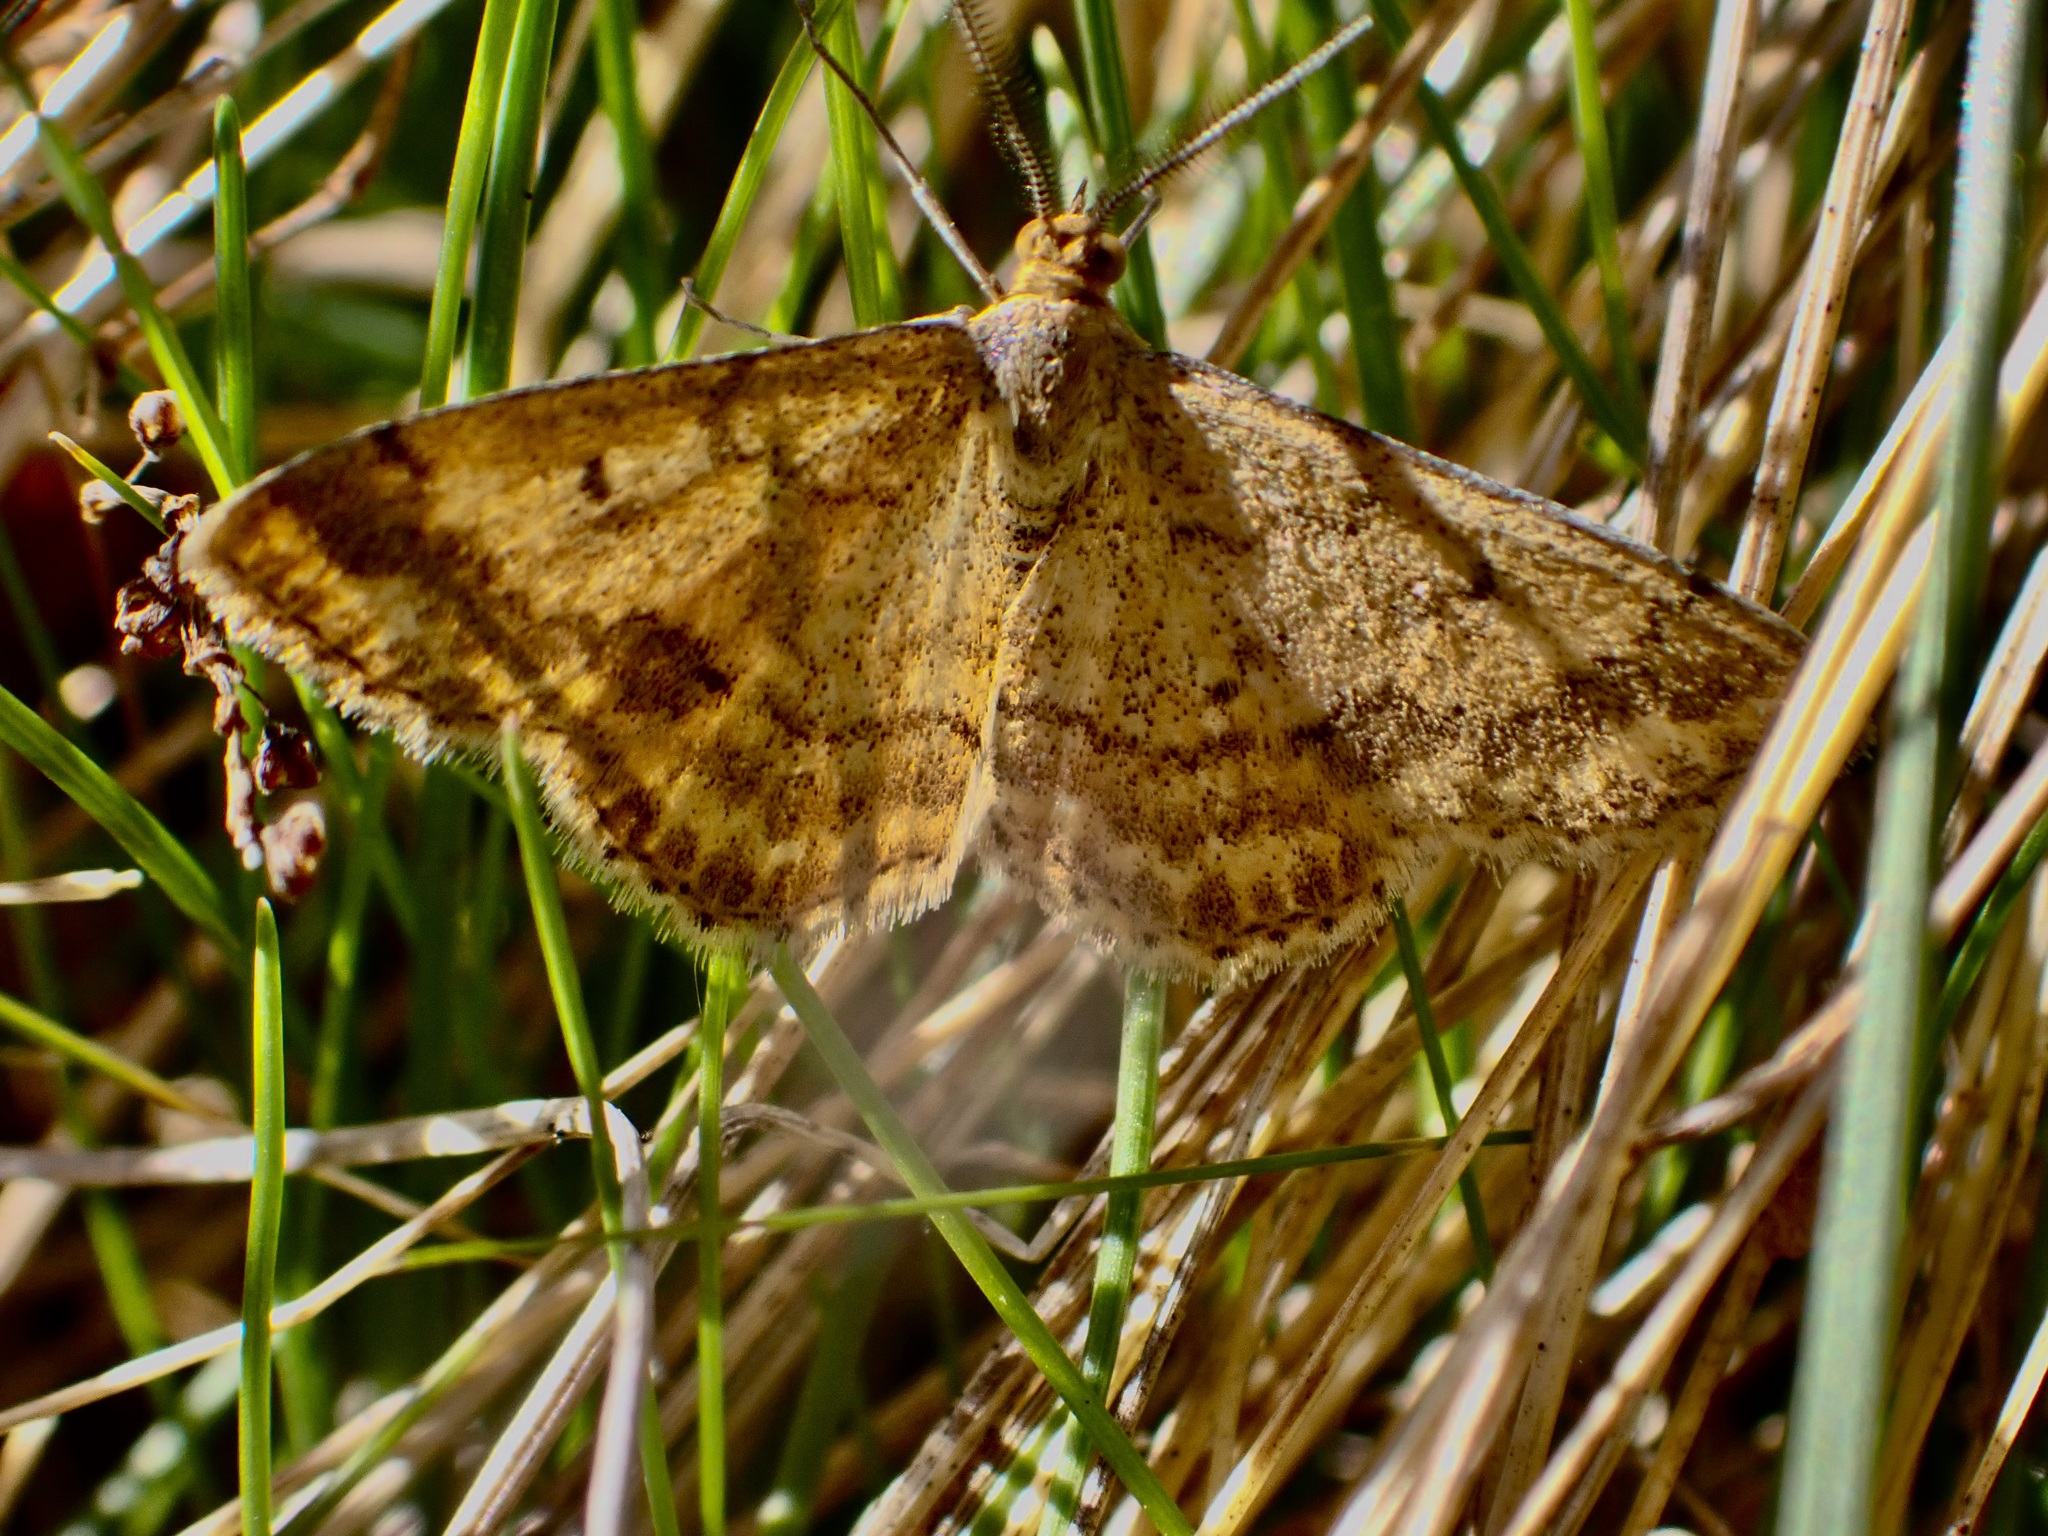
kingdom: Animalia
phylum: Arthropoda
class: Insecta
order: Lepidoptera
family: Geometridae
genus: Scopula
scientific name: Scopula rubraria
